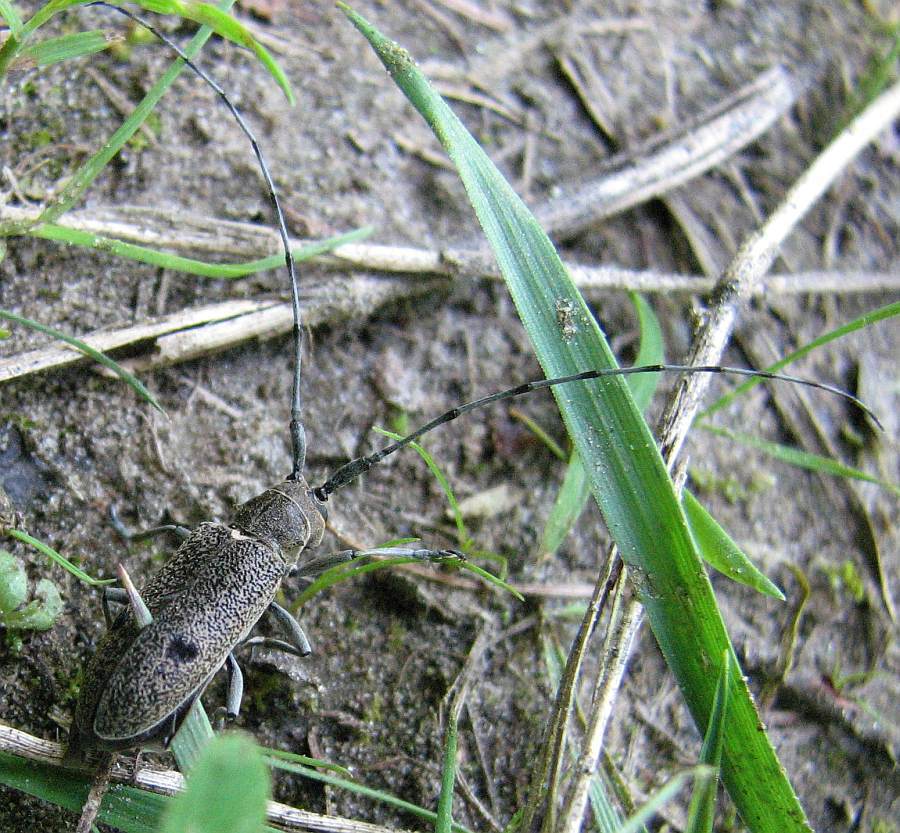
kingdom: Animalia
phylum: Arthropoda
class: Insecta
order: Coleoptera
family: Cerambycidae
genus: Microgoes
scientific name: Microgoes oculatus
